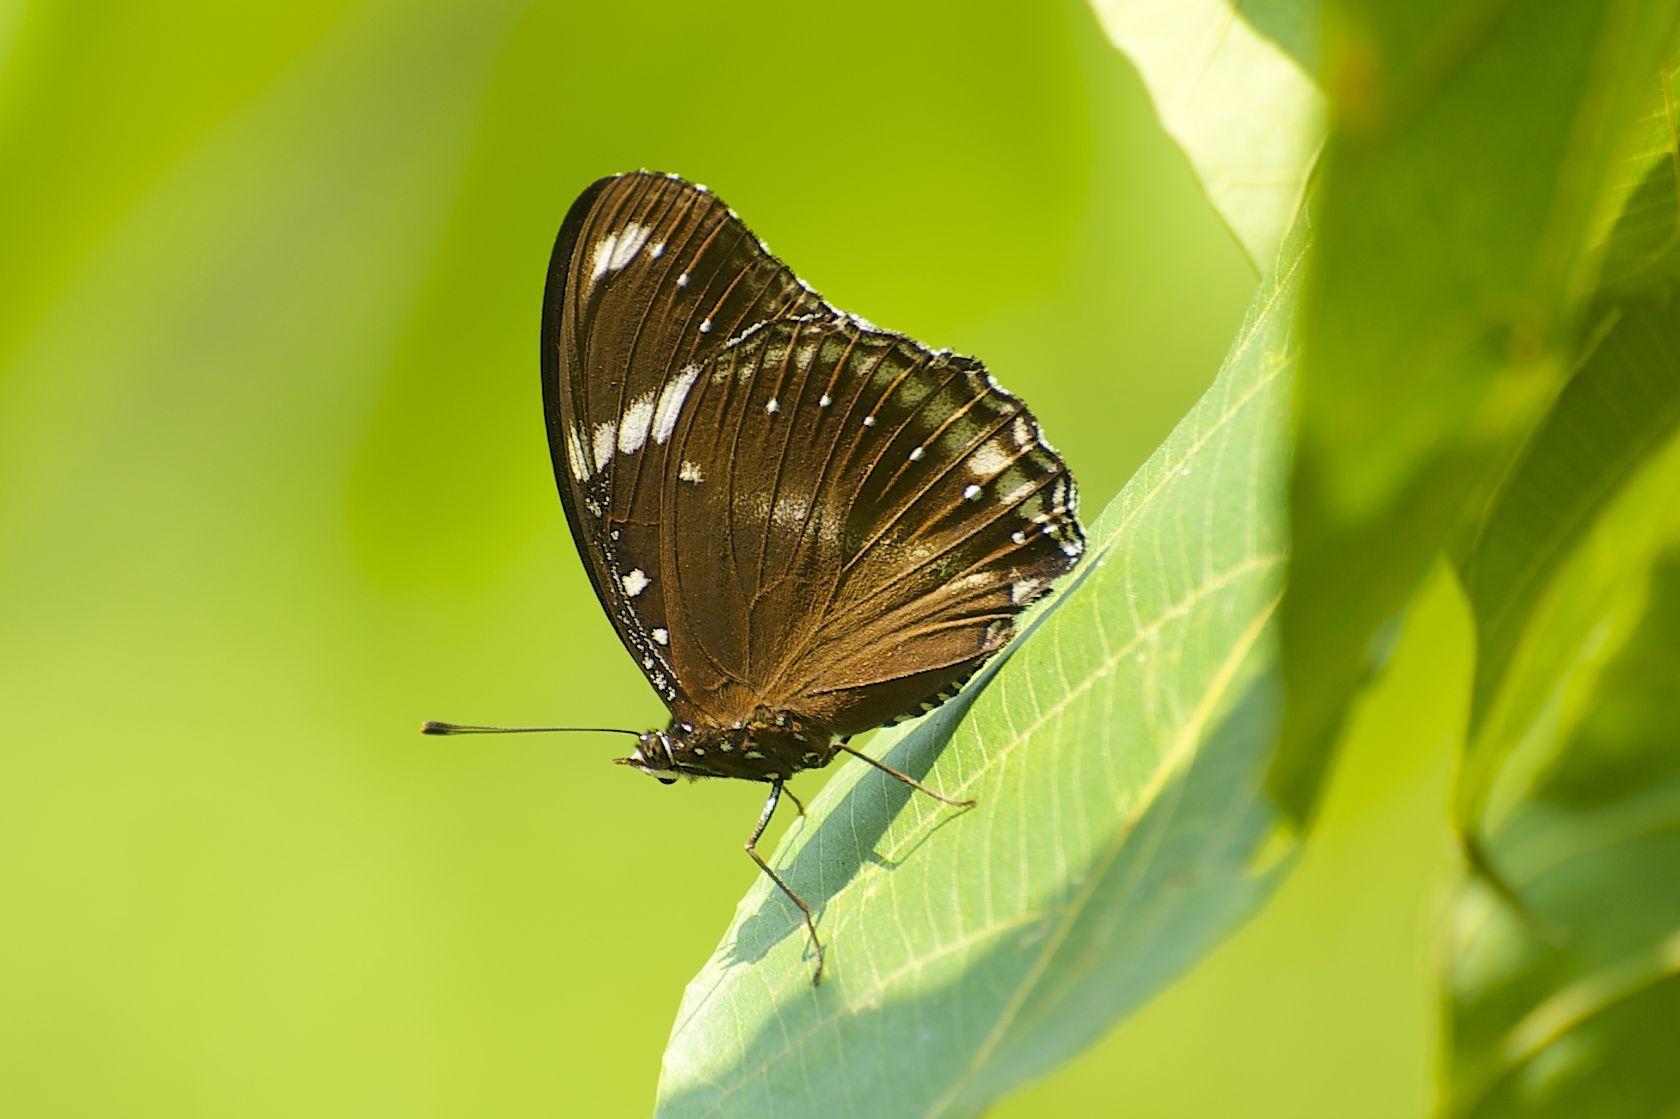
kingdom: Animalia
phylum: Arthropoda
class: Insecta
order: Lepidoptera
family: Nymphalidae
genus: Hypolimnas
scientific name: Hypolimnas bolina
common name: Great eggfly
